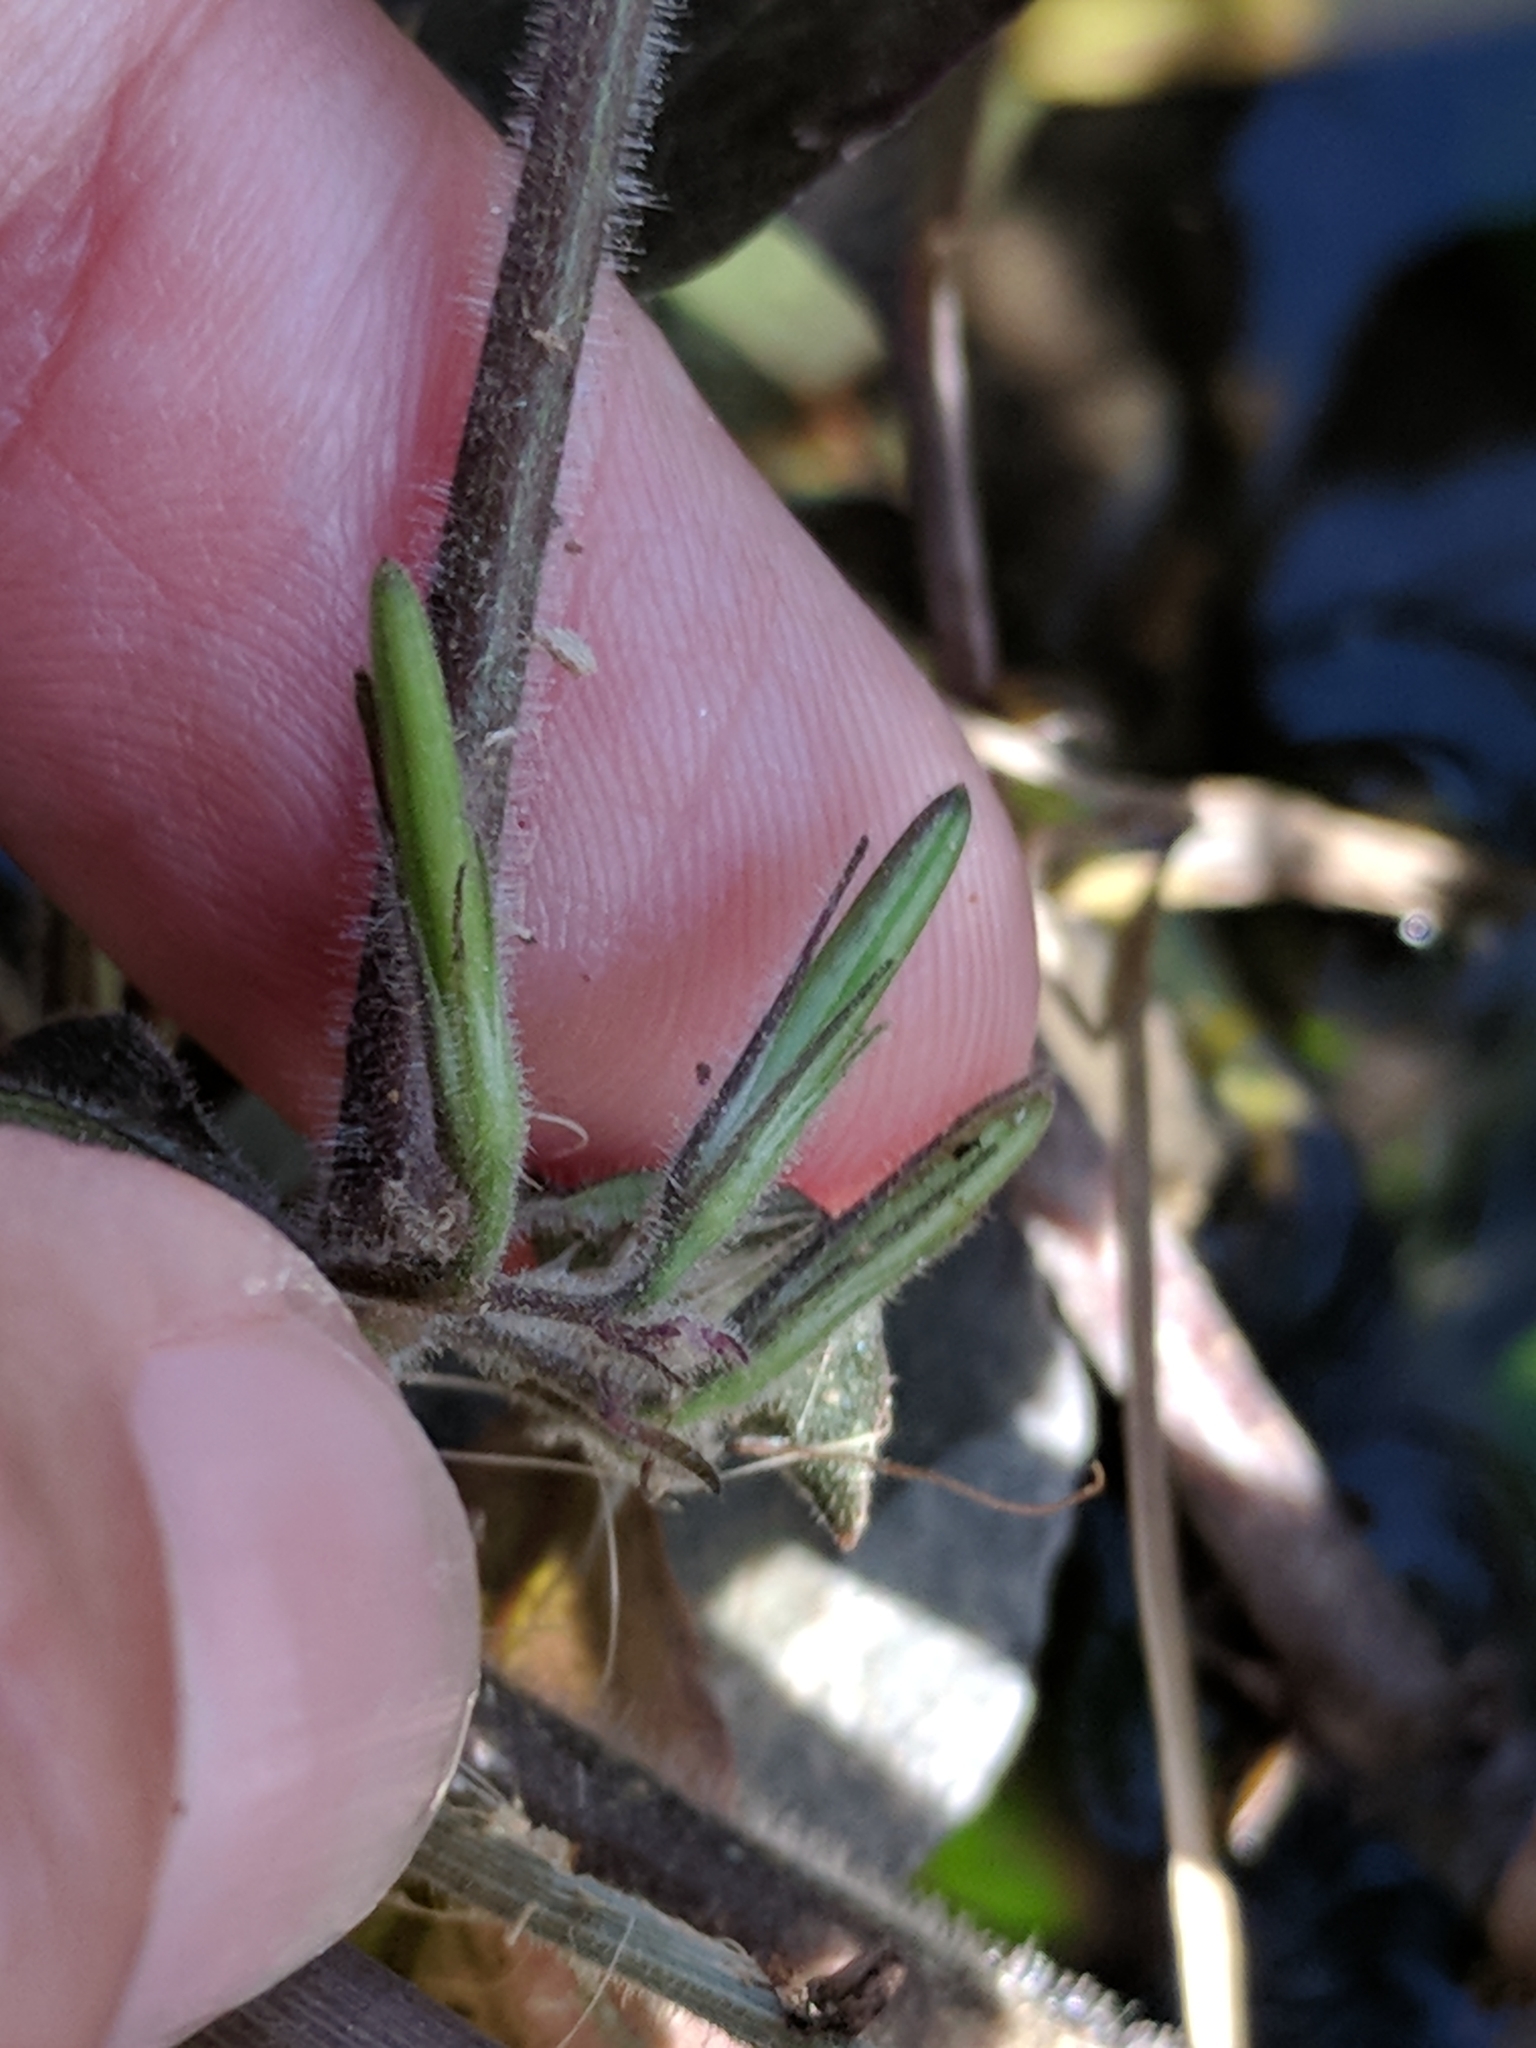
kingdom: Plantae
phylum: Tracheophyta
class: Magnoliopsida
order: Lamiales
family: Acanthaceae
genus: Hygrophila
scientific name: Hygrophila corymbosa
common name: Starhorn
